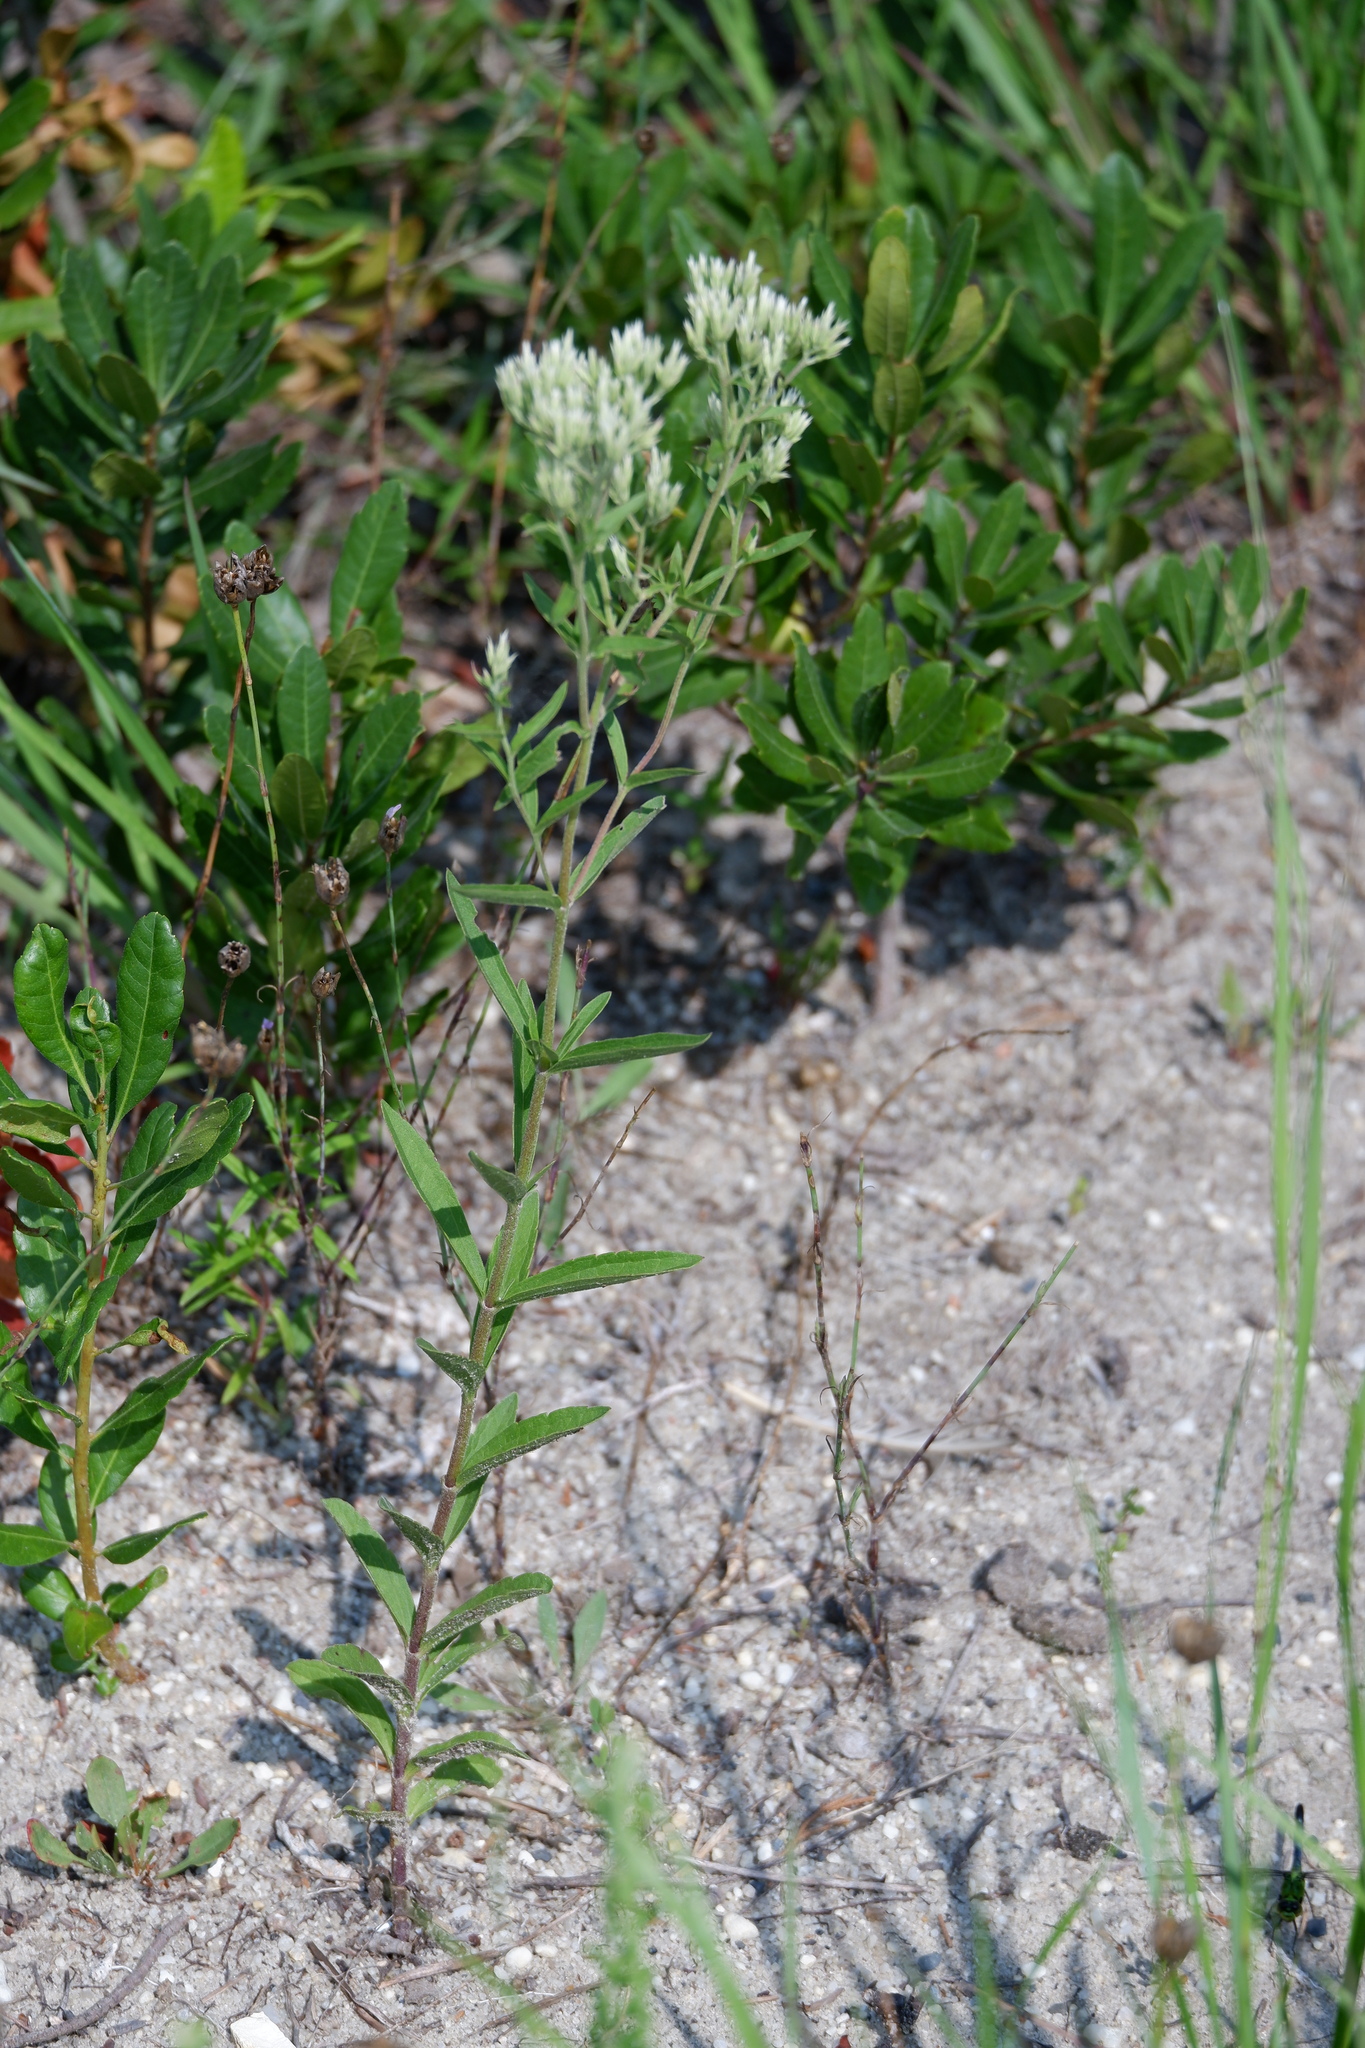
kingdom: Plantae
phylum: Tracheophyta
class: Magnoliopsida
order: Asterales
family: Asteraceae
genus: Eupatorium
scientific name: Eupatorium subvenosum
